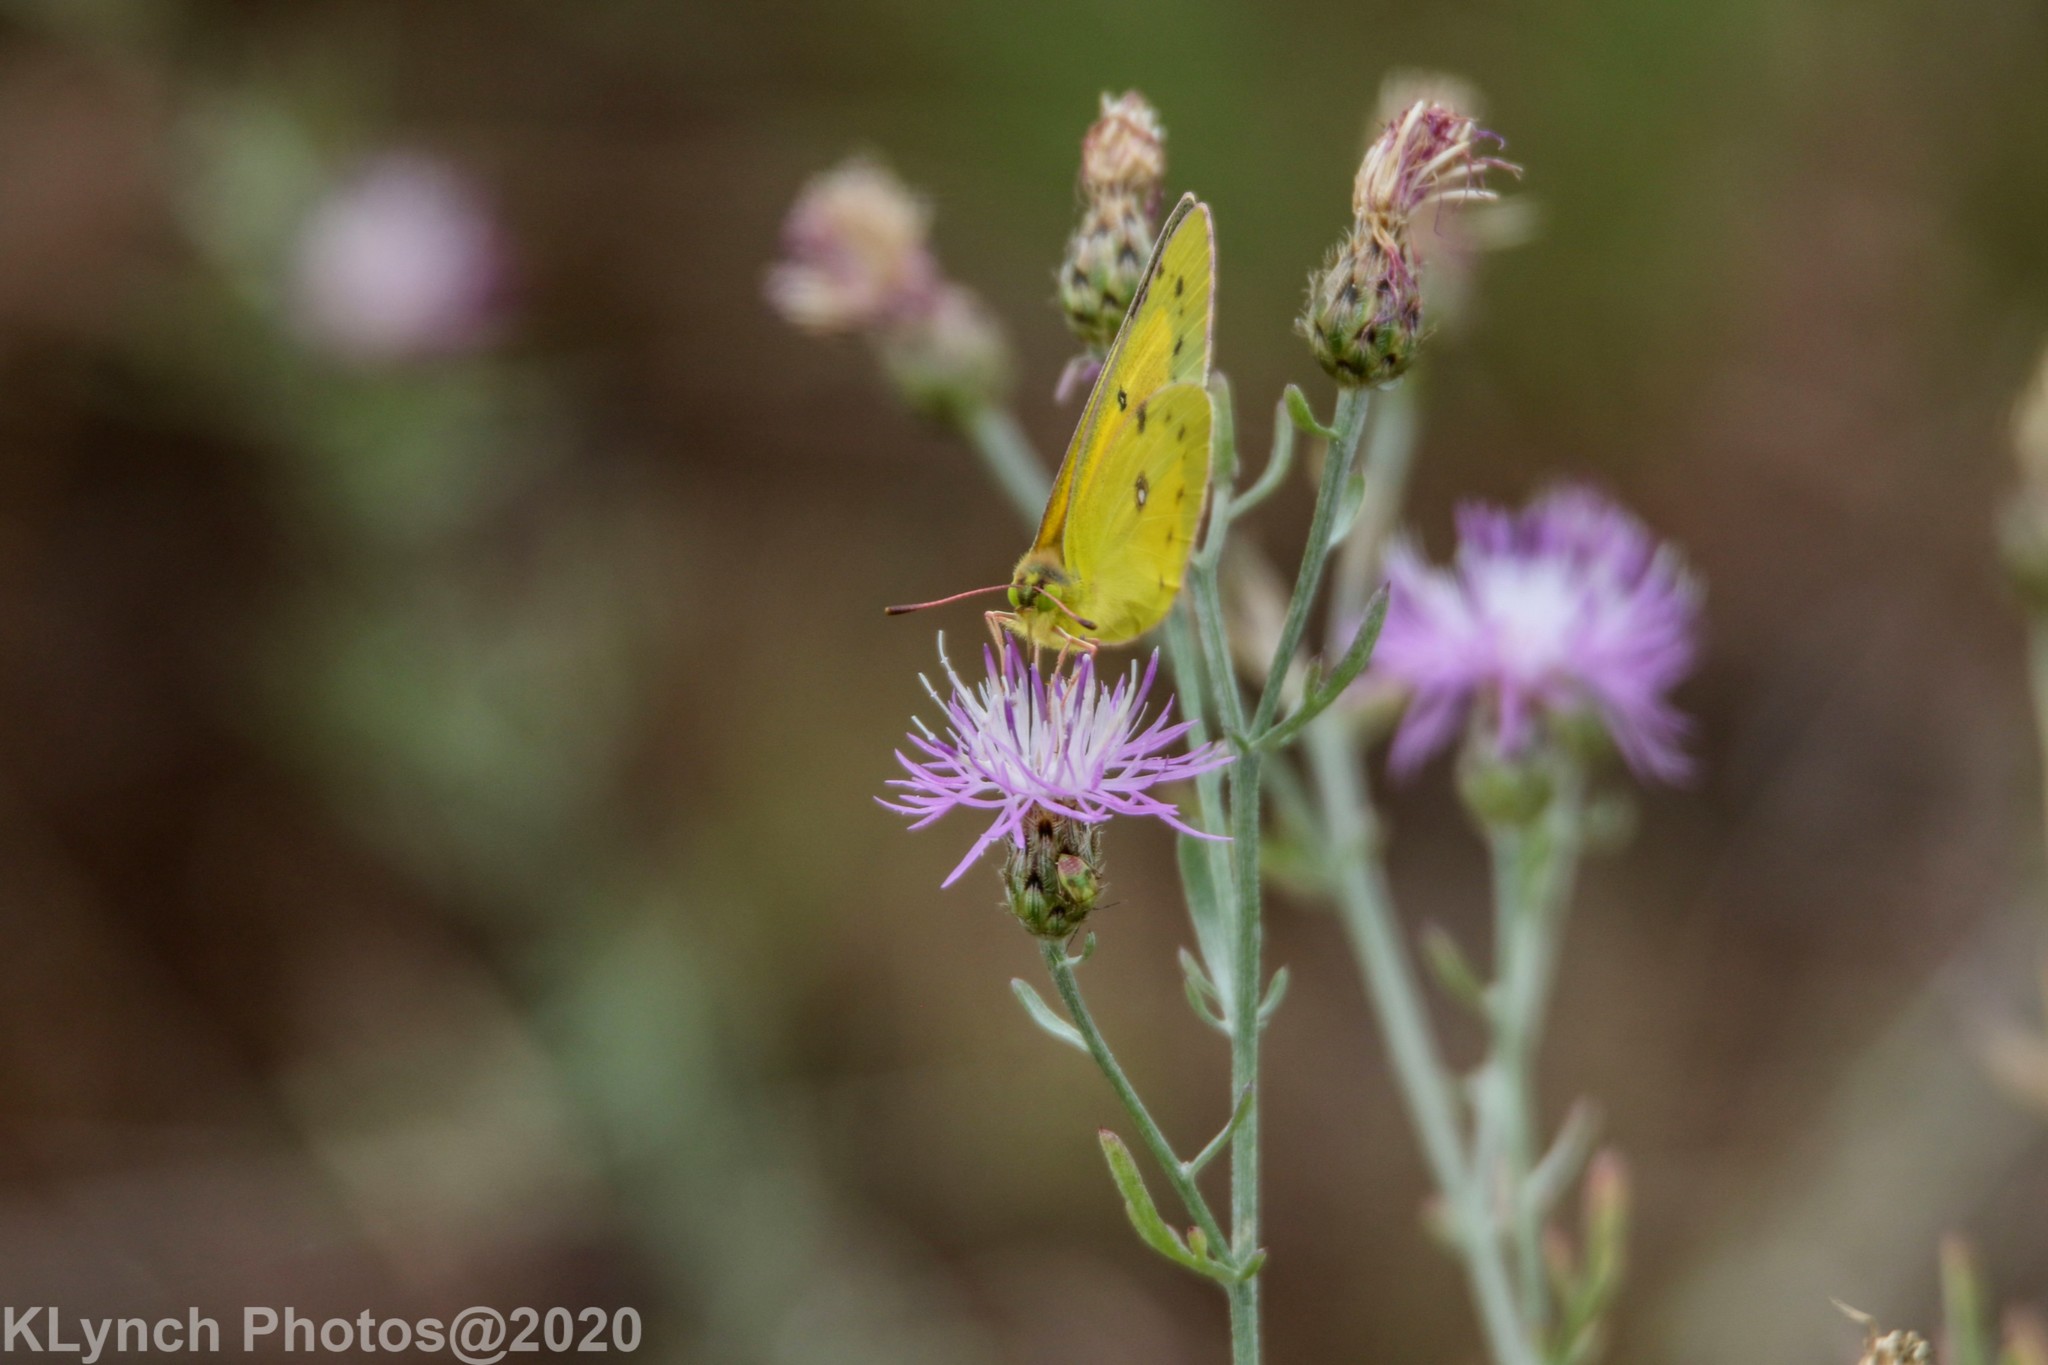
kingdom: Animalia
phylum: Arthropoda
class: Insecta
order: Lepidoptera
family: Pieridae
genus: Colias
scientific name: Colias eurytheme
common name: Alfalfa butterfly
